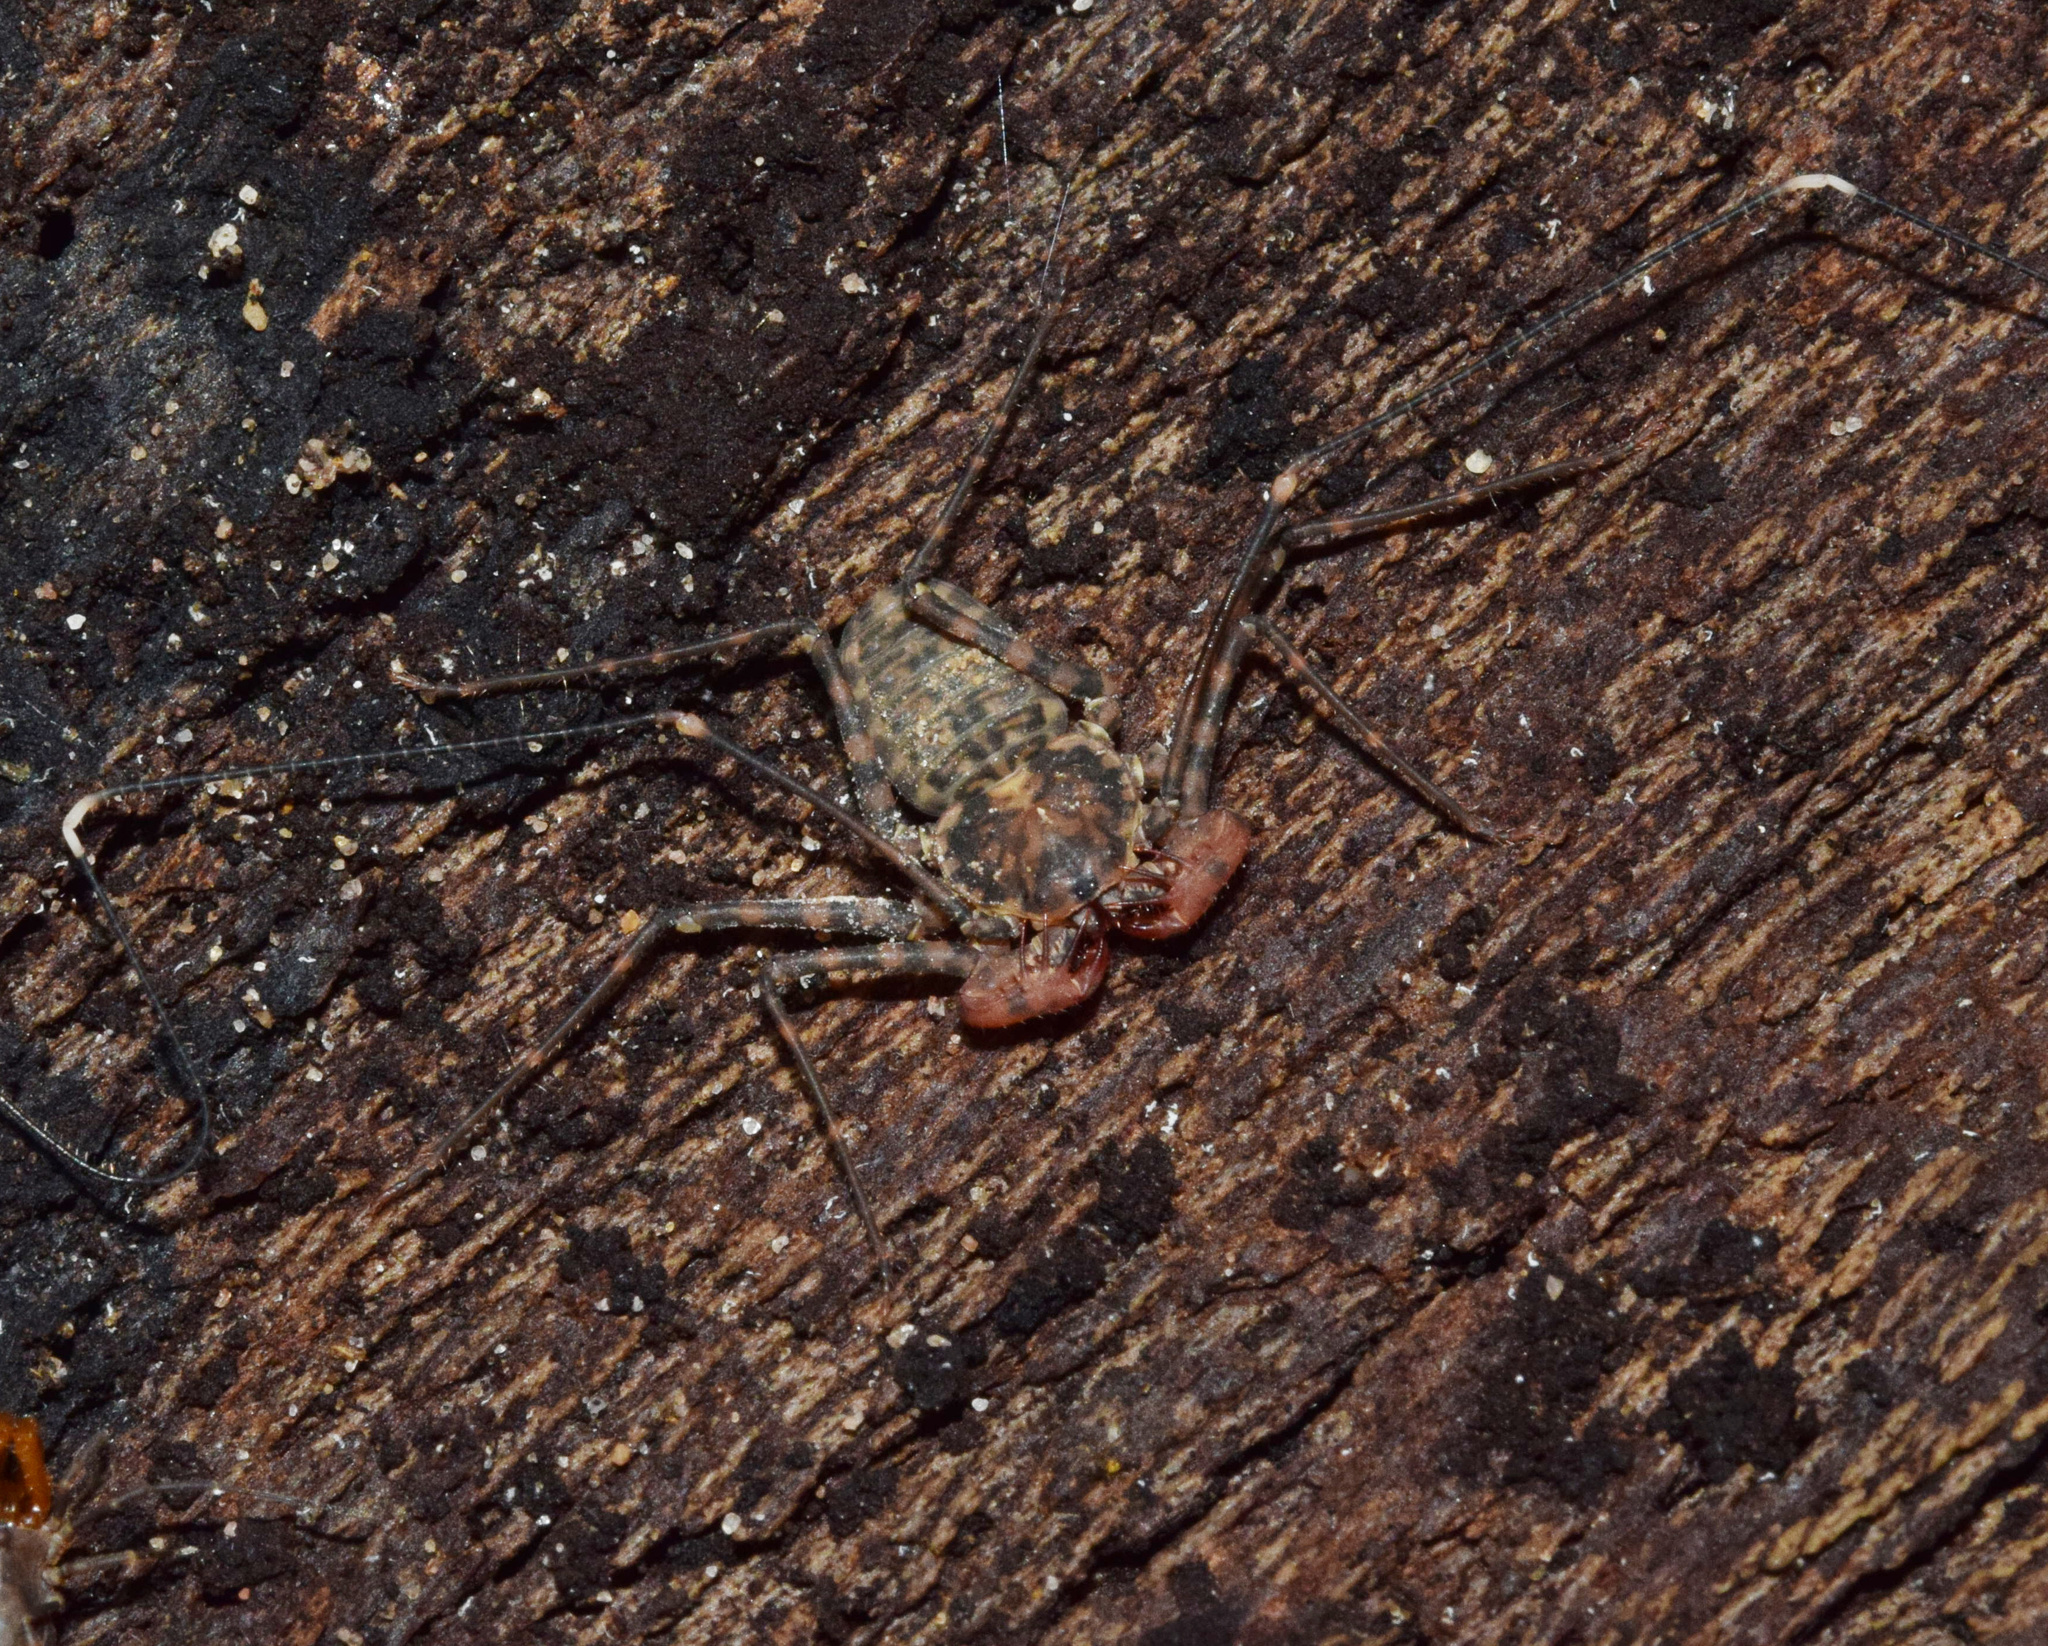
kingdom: Animalia
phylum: Arthropoda
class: Arachnida
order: Amblypygi
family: Phrynichidae
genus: Damon
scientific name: Damon annulatipes
